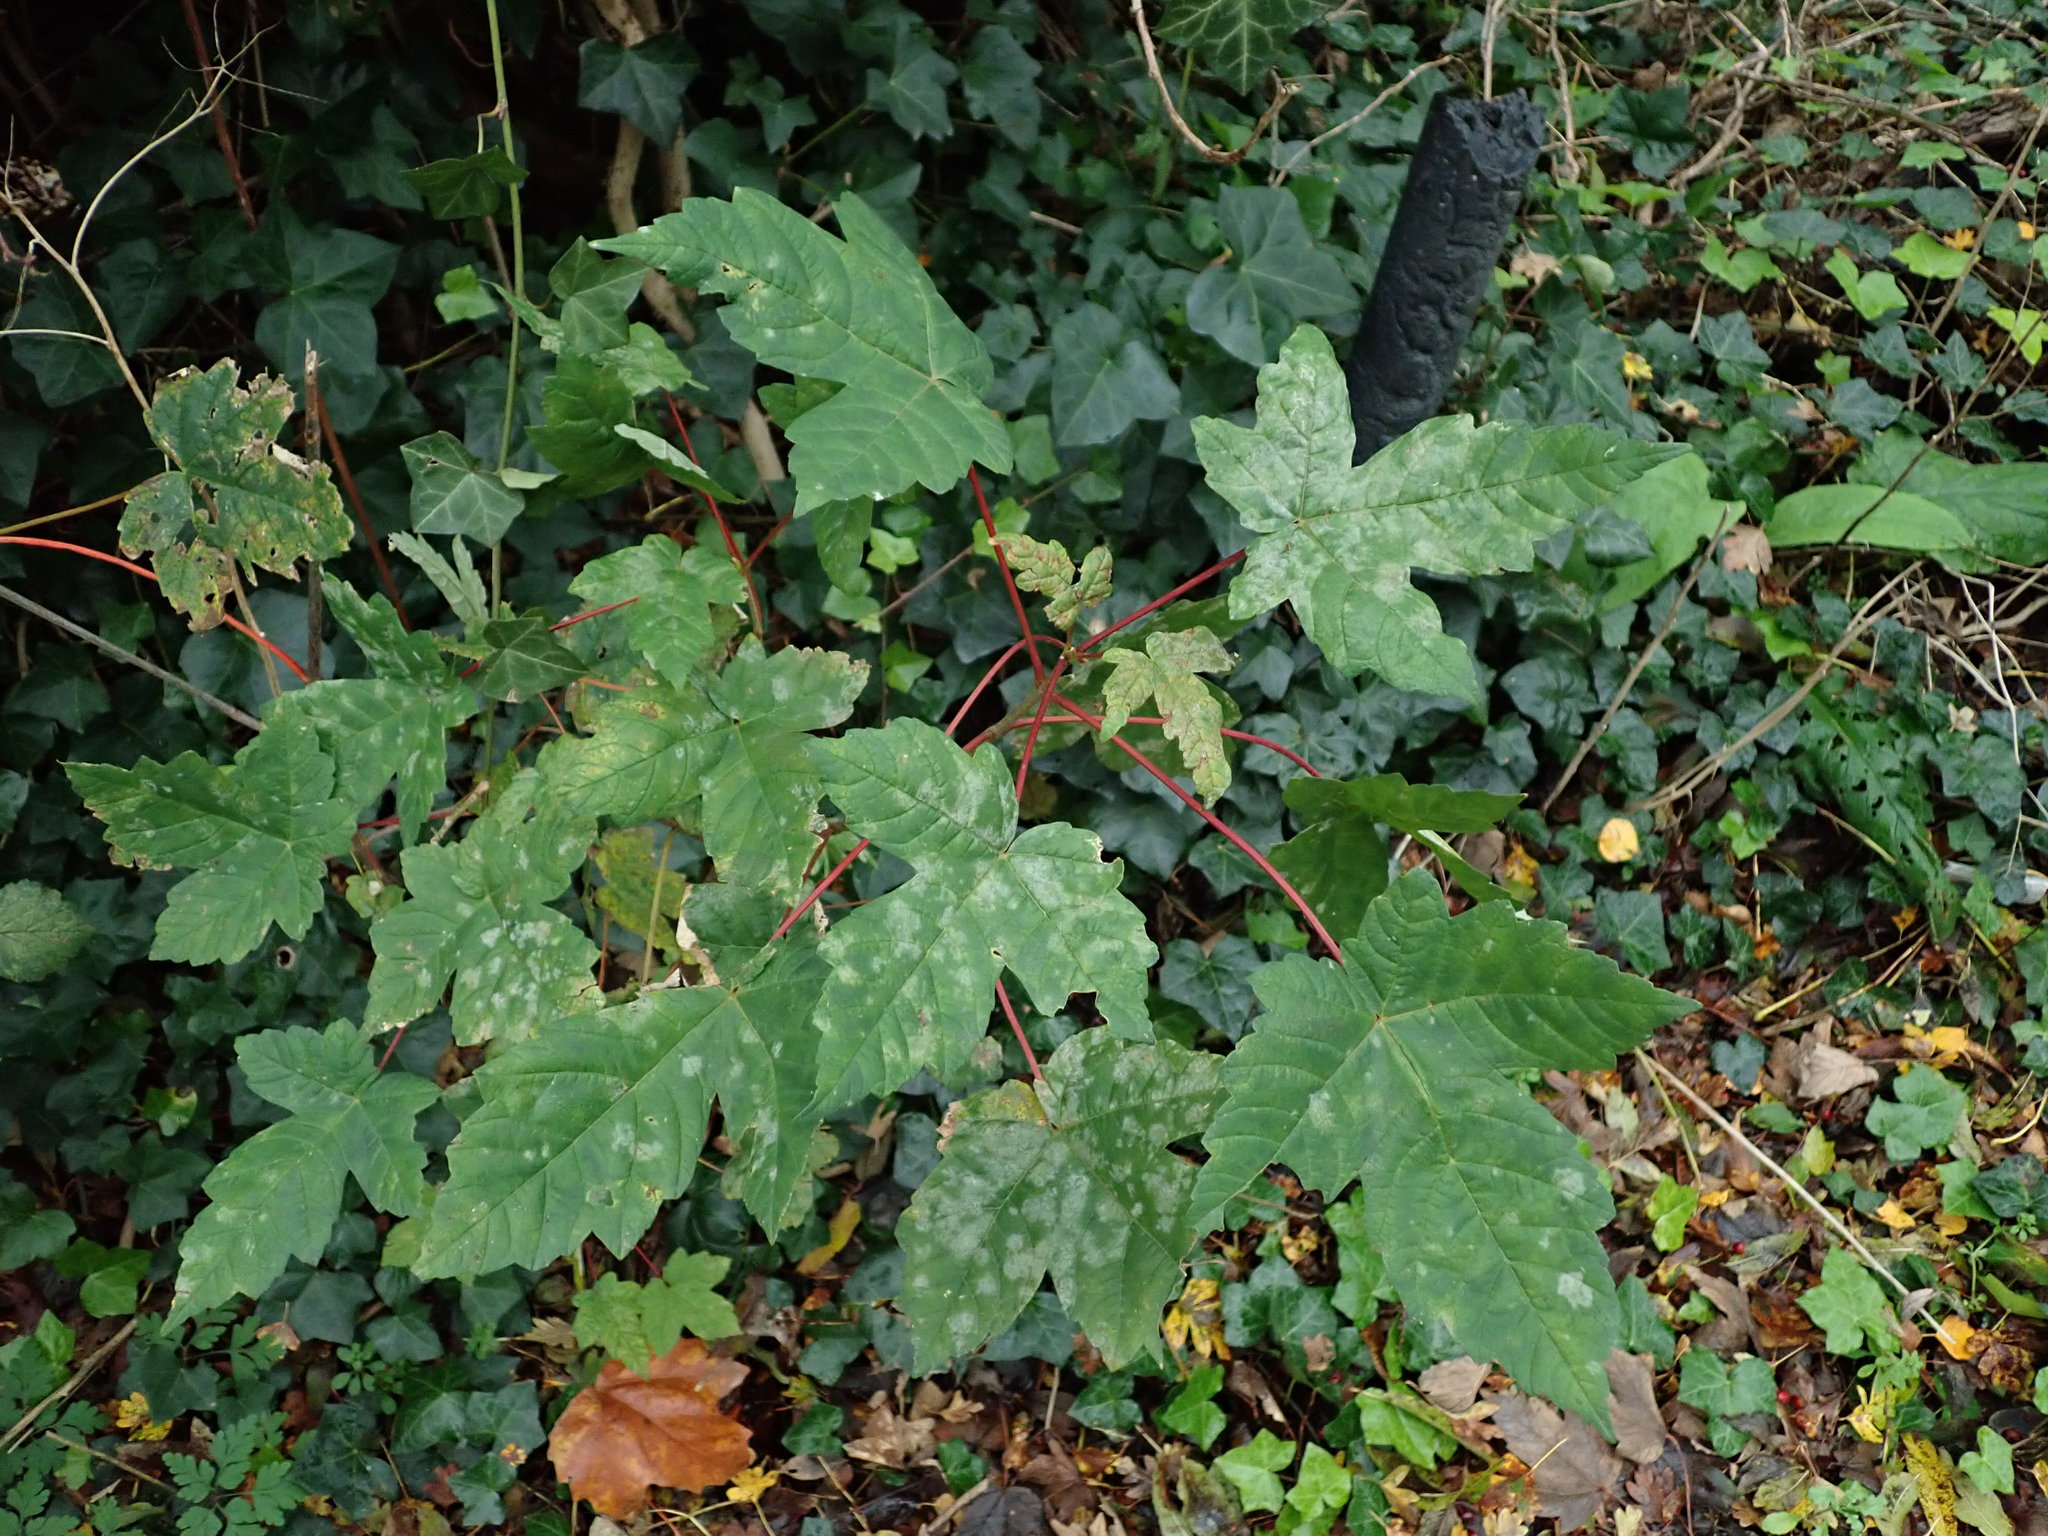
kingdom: Plantae
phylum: Tracheophyta
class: Magnoliopsida
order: Sapindales
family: Sapindaceae
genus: Acer
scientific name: Acer pseudoplatanus
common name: Sycamore
